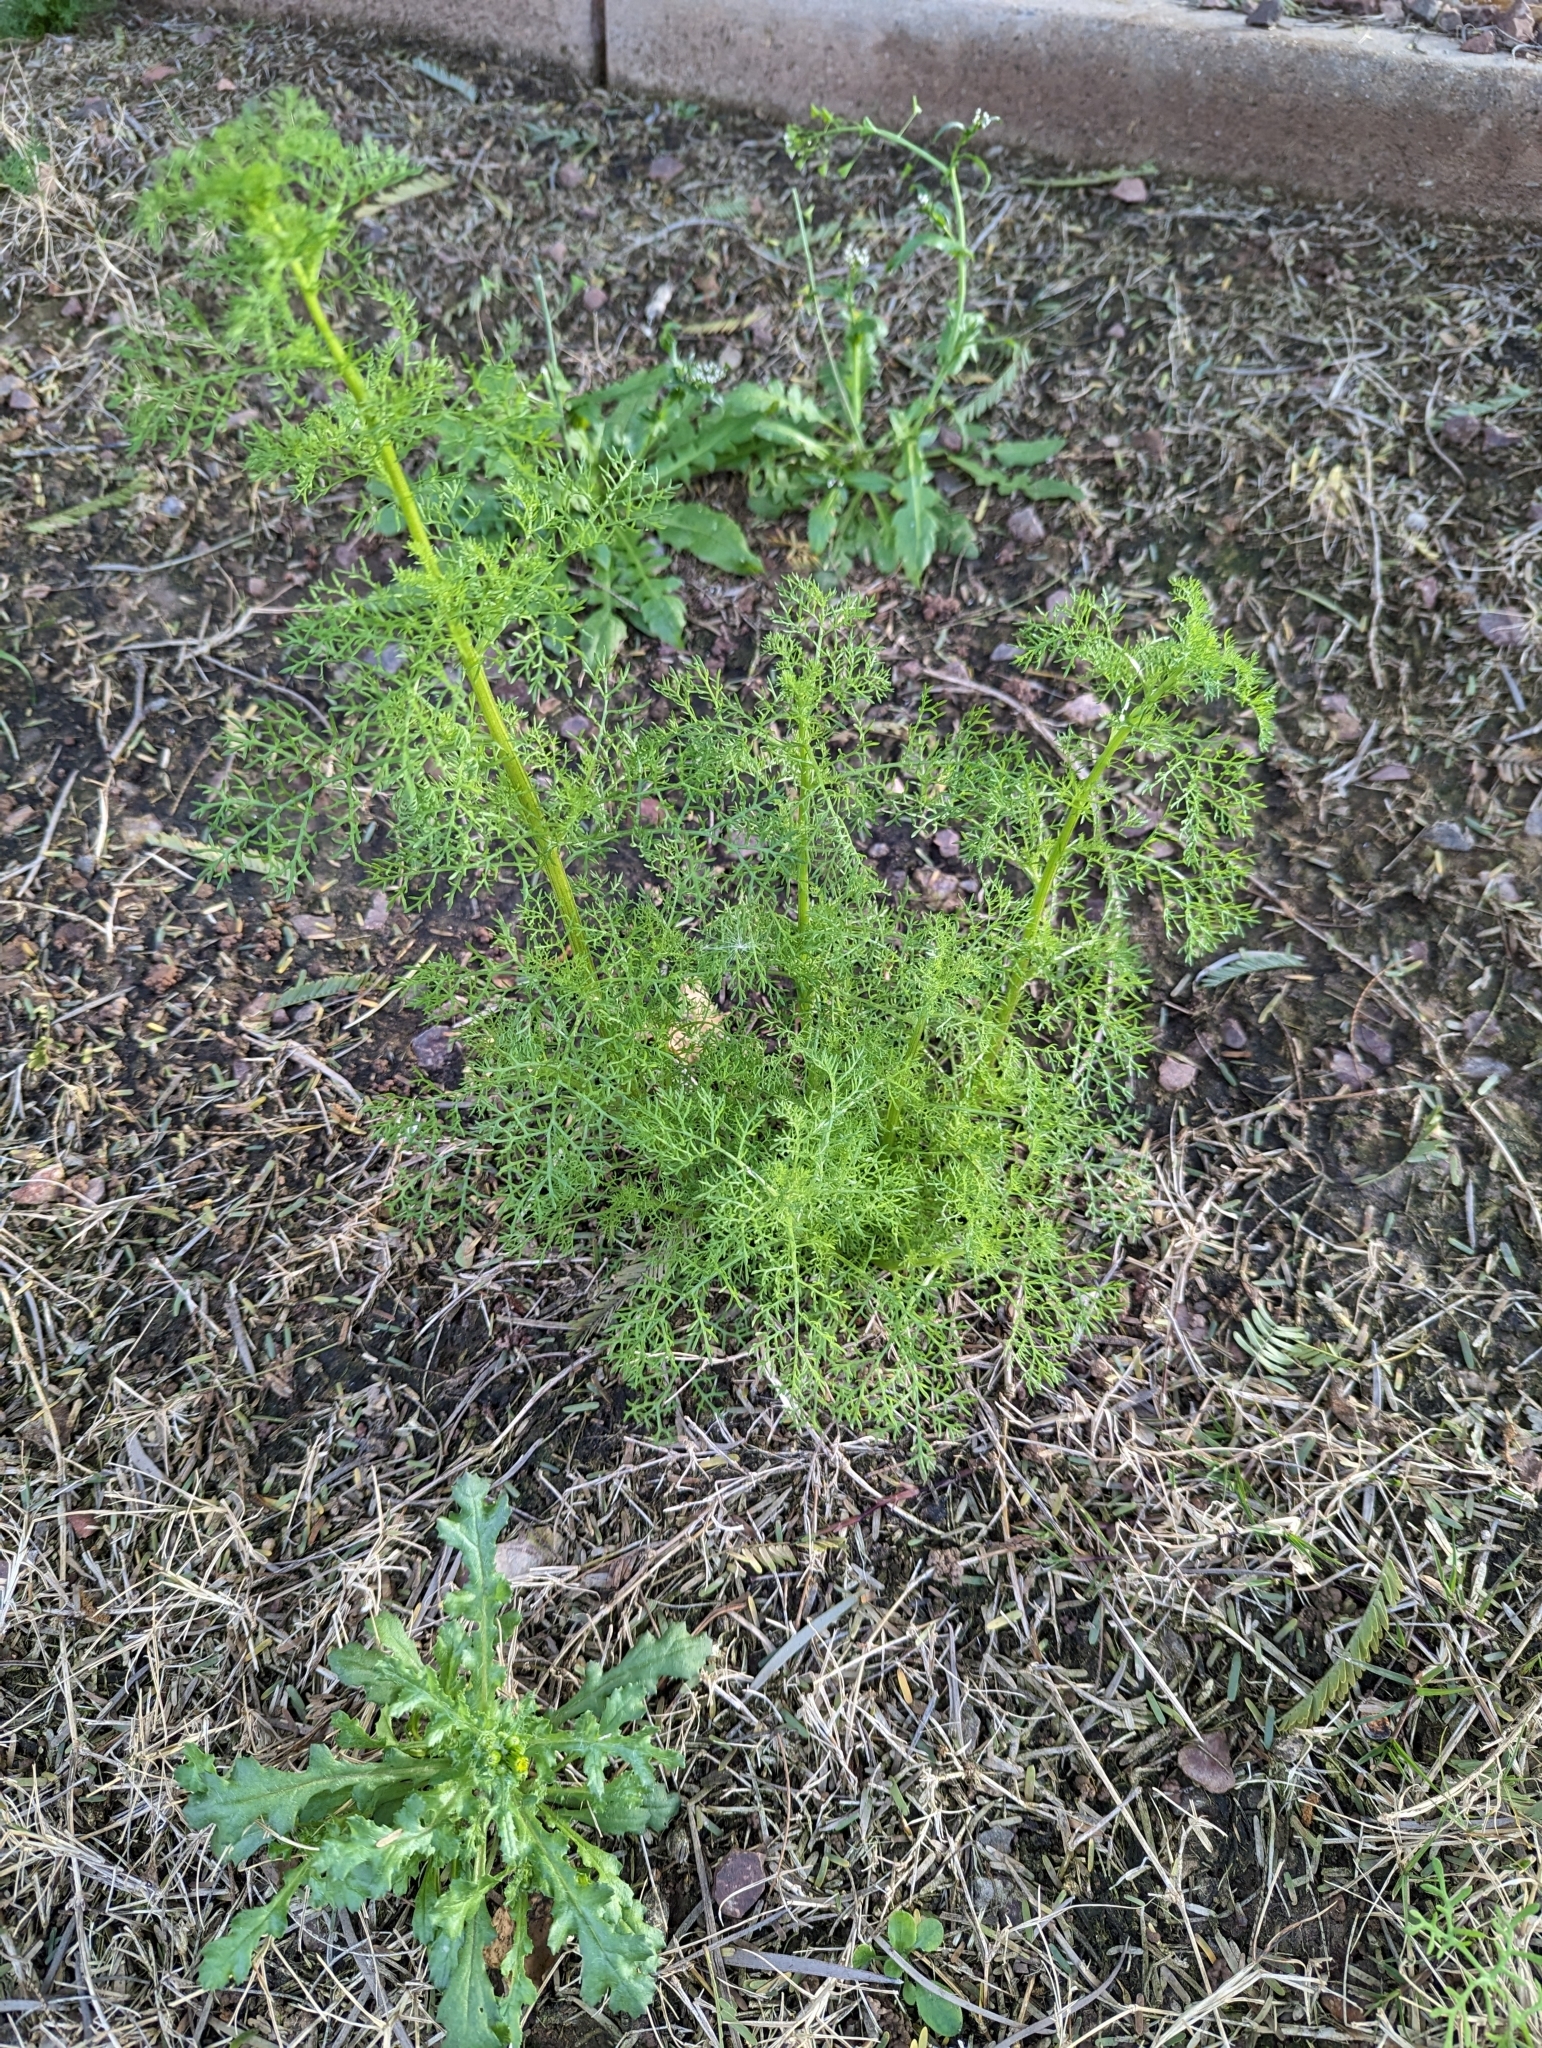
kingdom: Plantae
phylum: Tracheophyta
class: Magnoliopsida
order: Asterales
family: Asteraceae
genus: Oncosiphon
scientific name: Oncosiphon pilulifer
